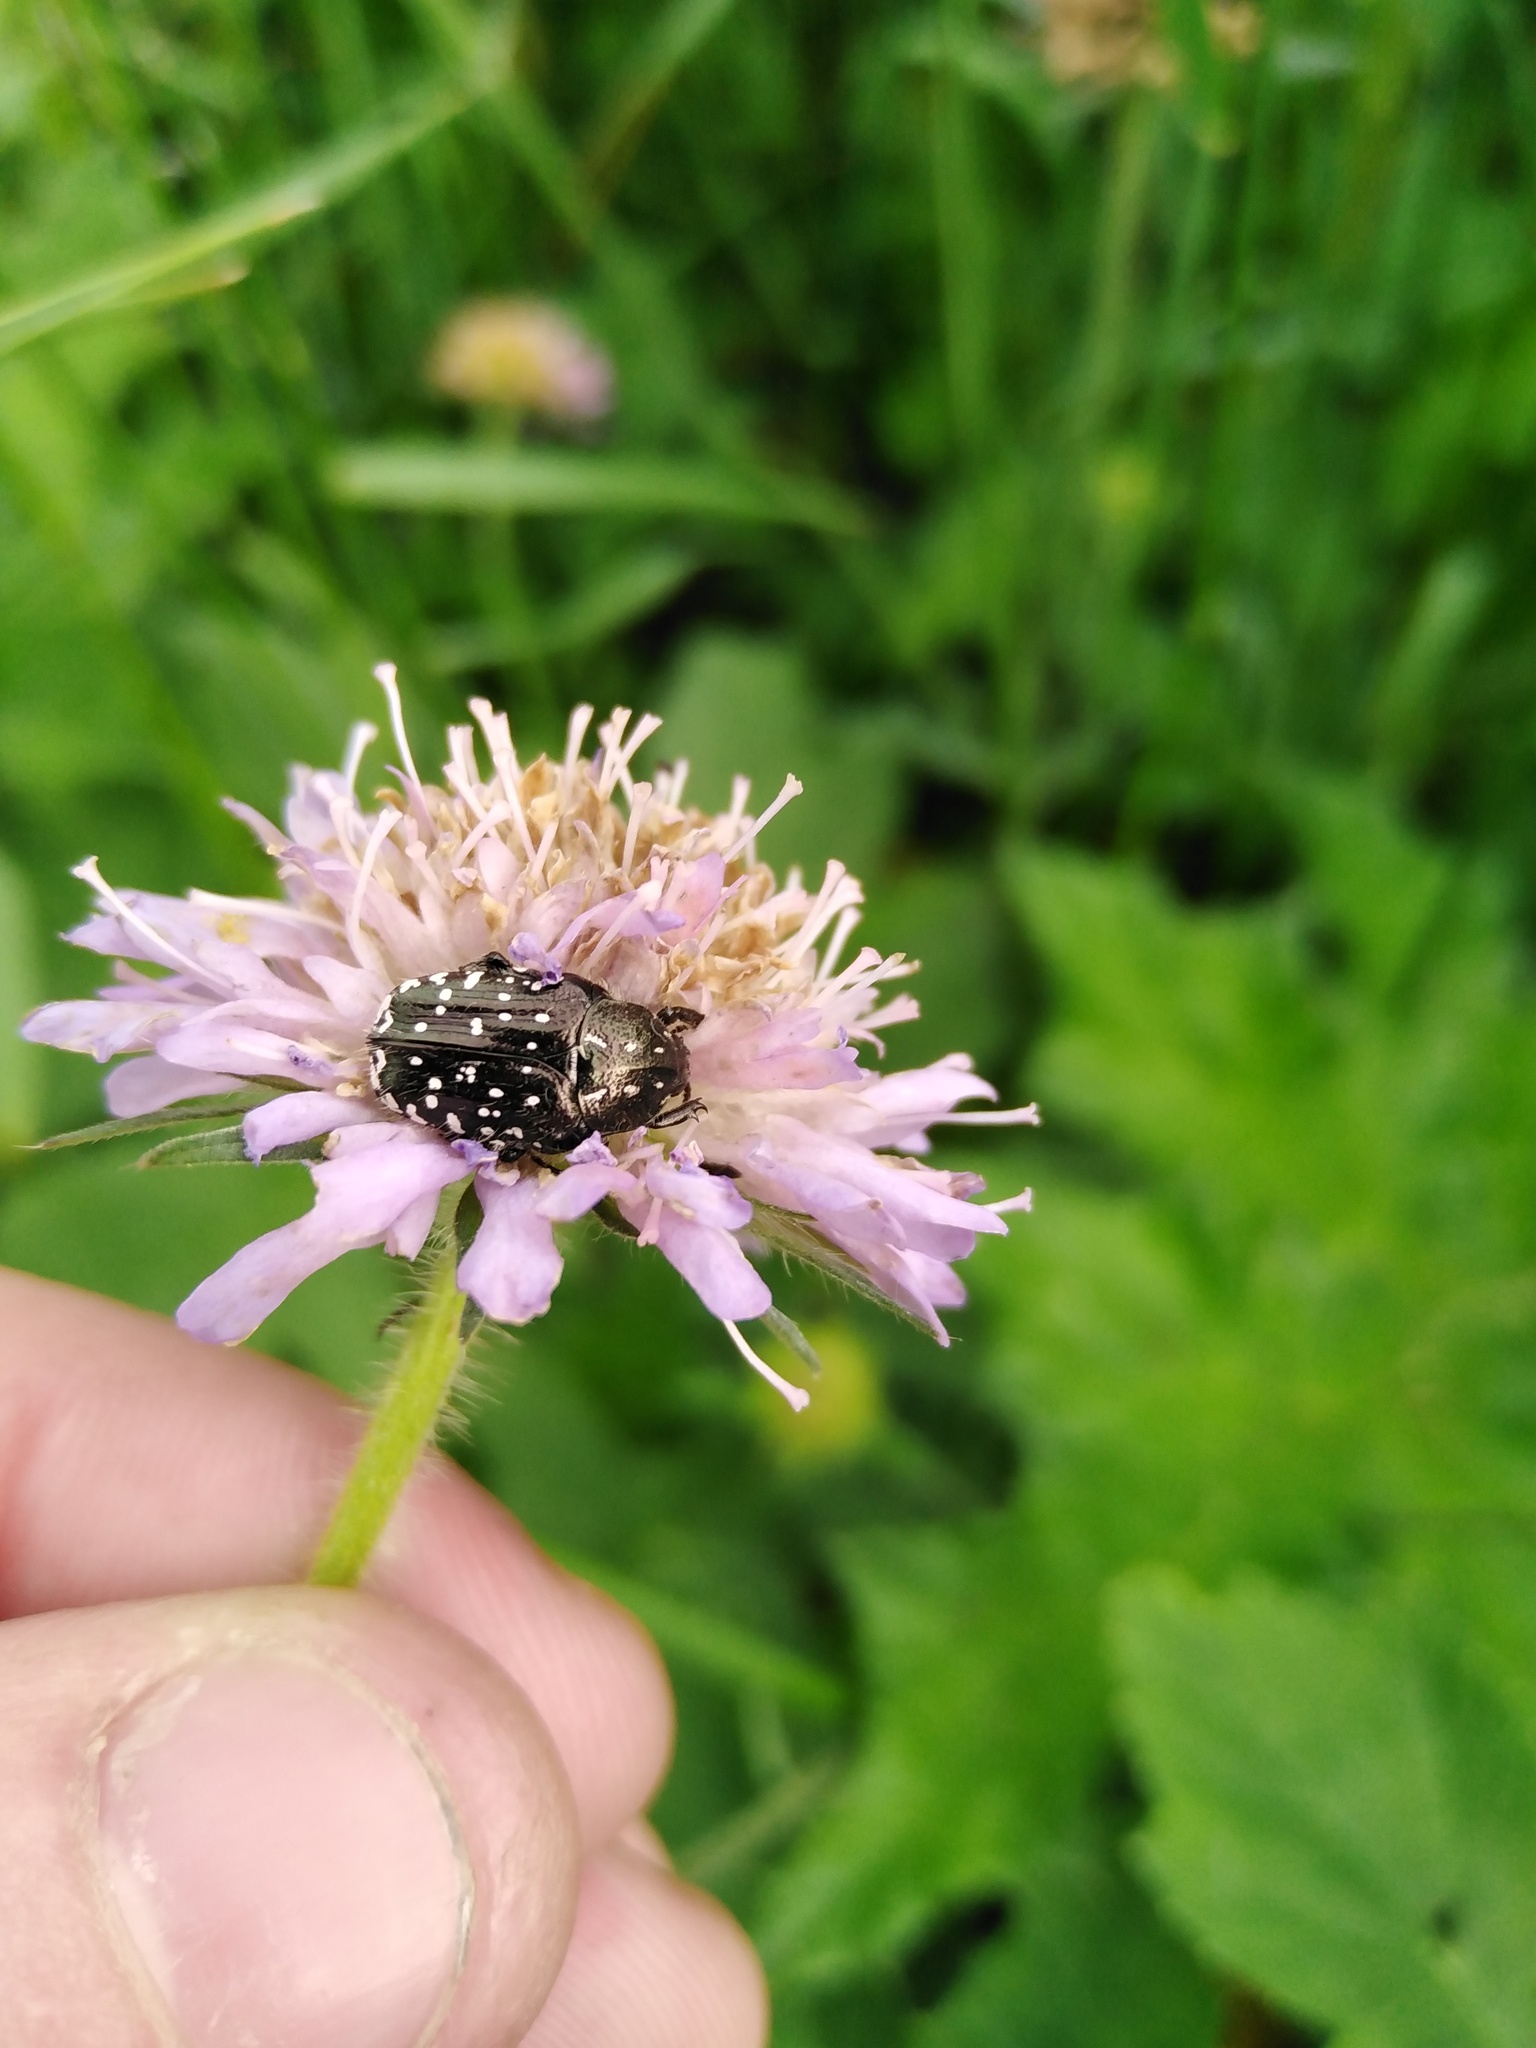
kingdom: Animalia
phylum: Arthropoda
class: Insecta
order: Coleoptera
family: Scarabaeidae
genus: Oxythyrea
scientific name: Oxythyrea funesta
